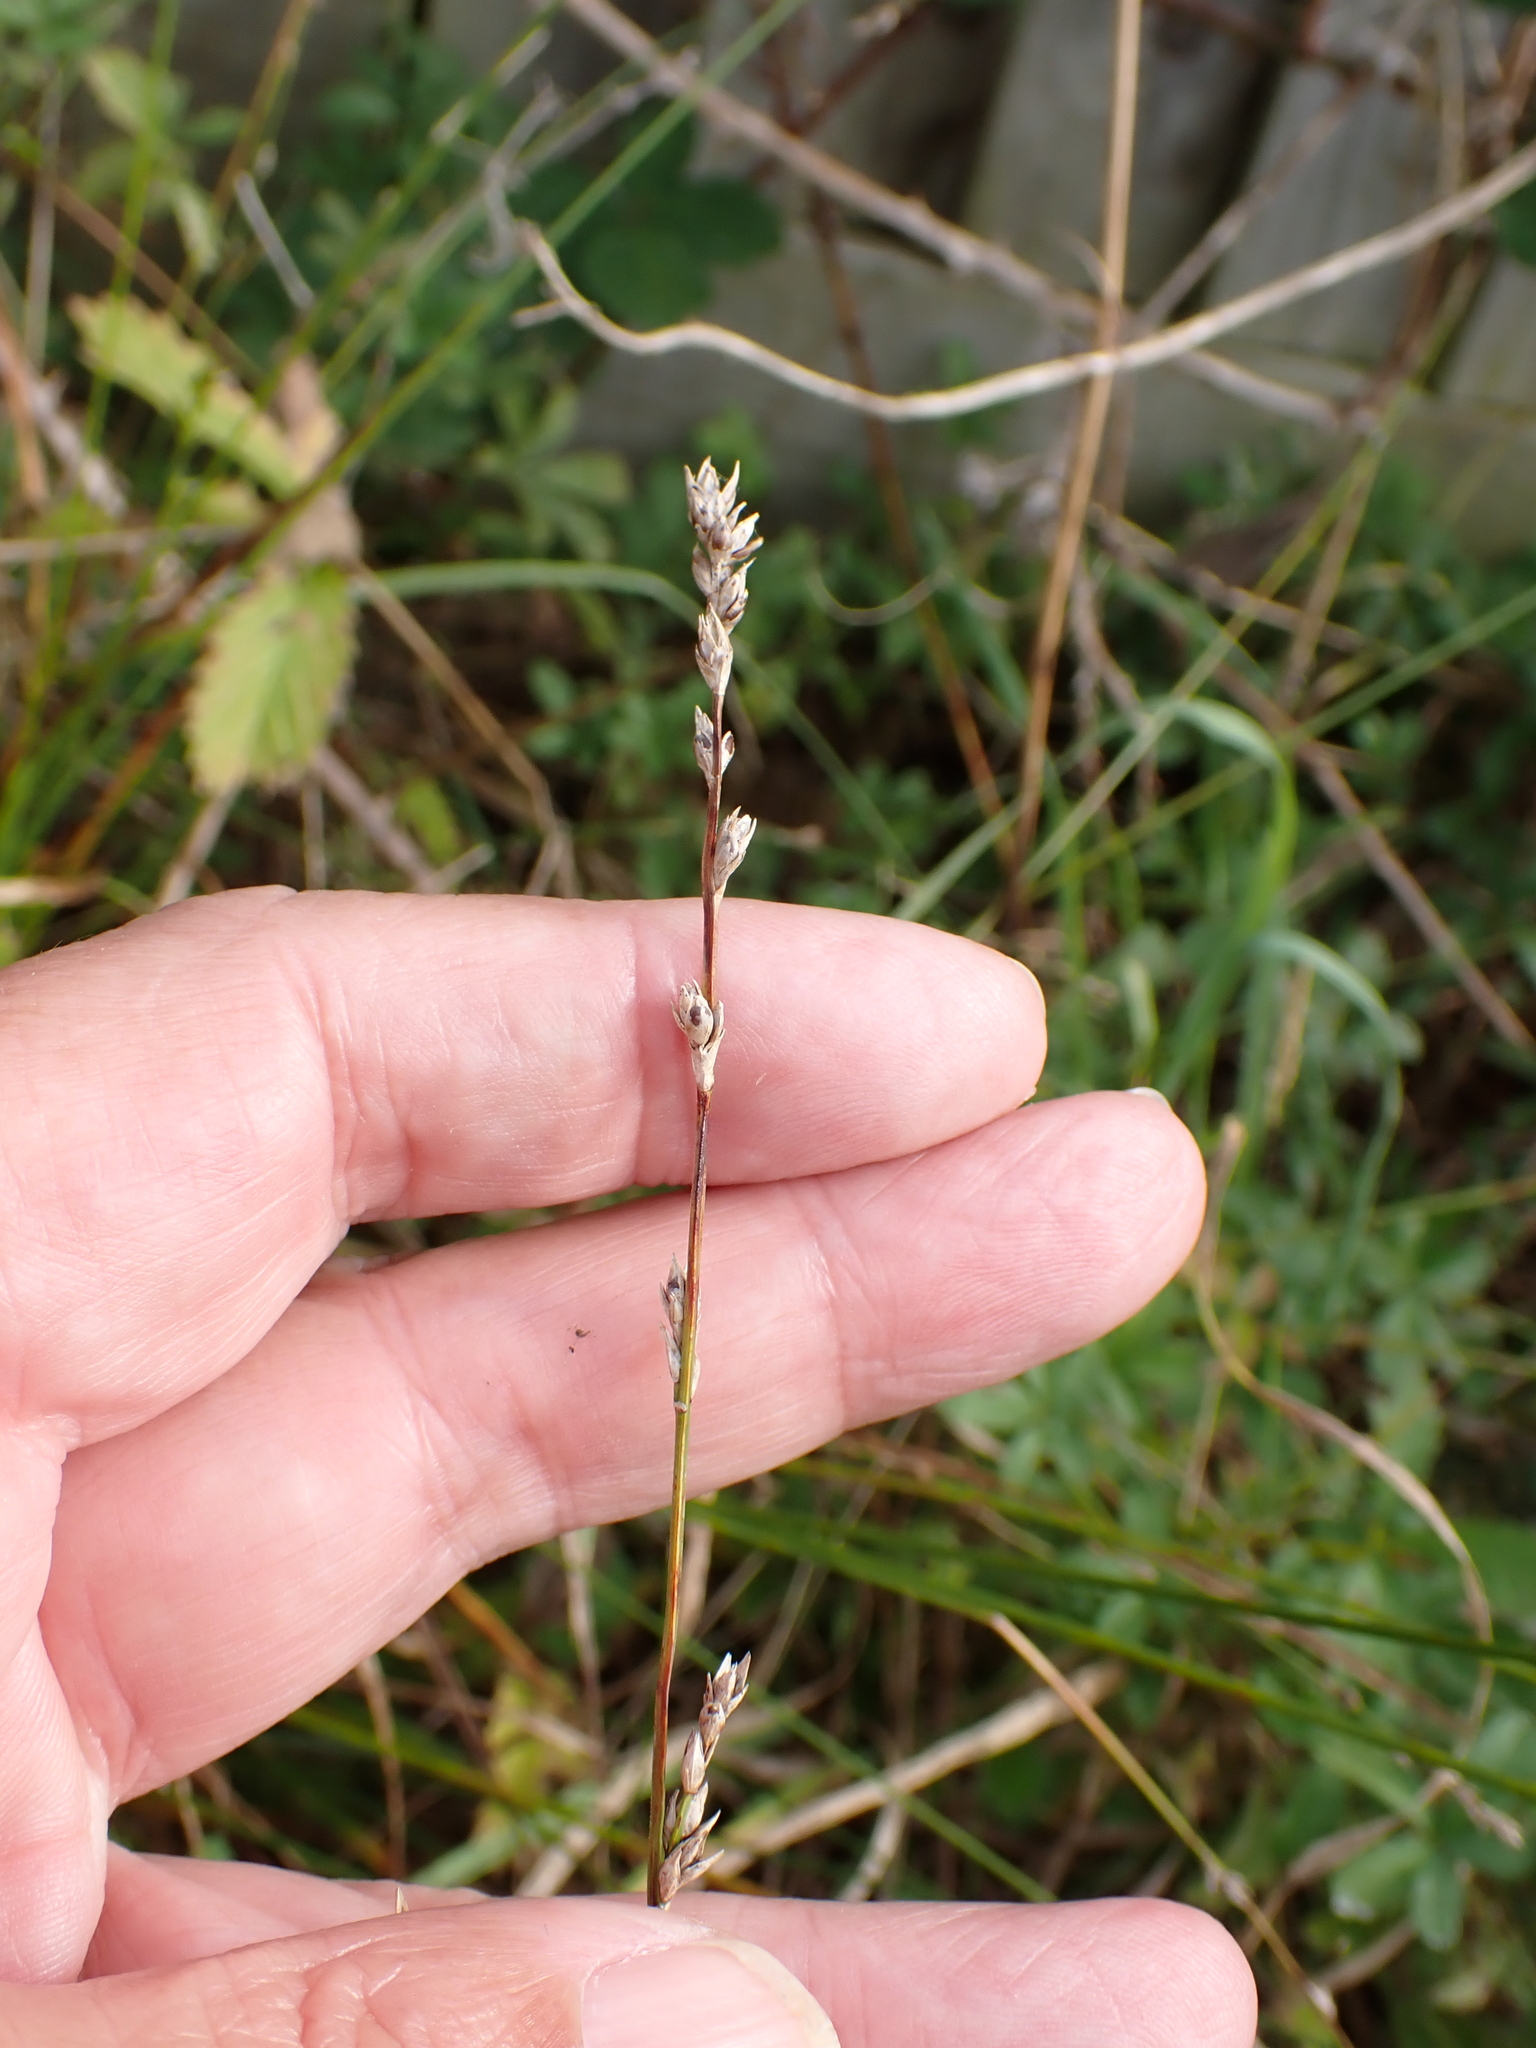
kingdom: Plantae
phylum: Tracheophyta
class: Liliopsida
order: Poales
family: Cyperaceae
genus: Carex
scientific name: Carex divulsa
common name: Grassland sedge
